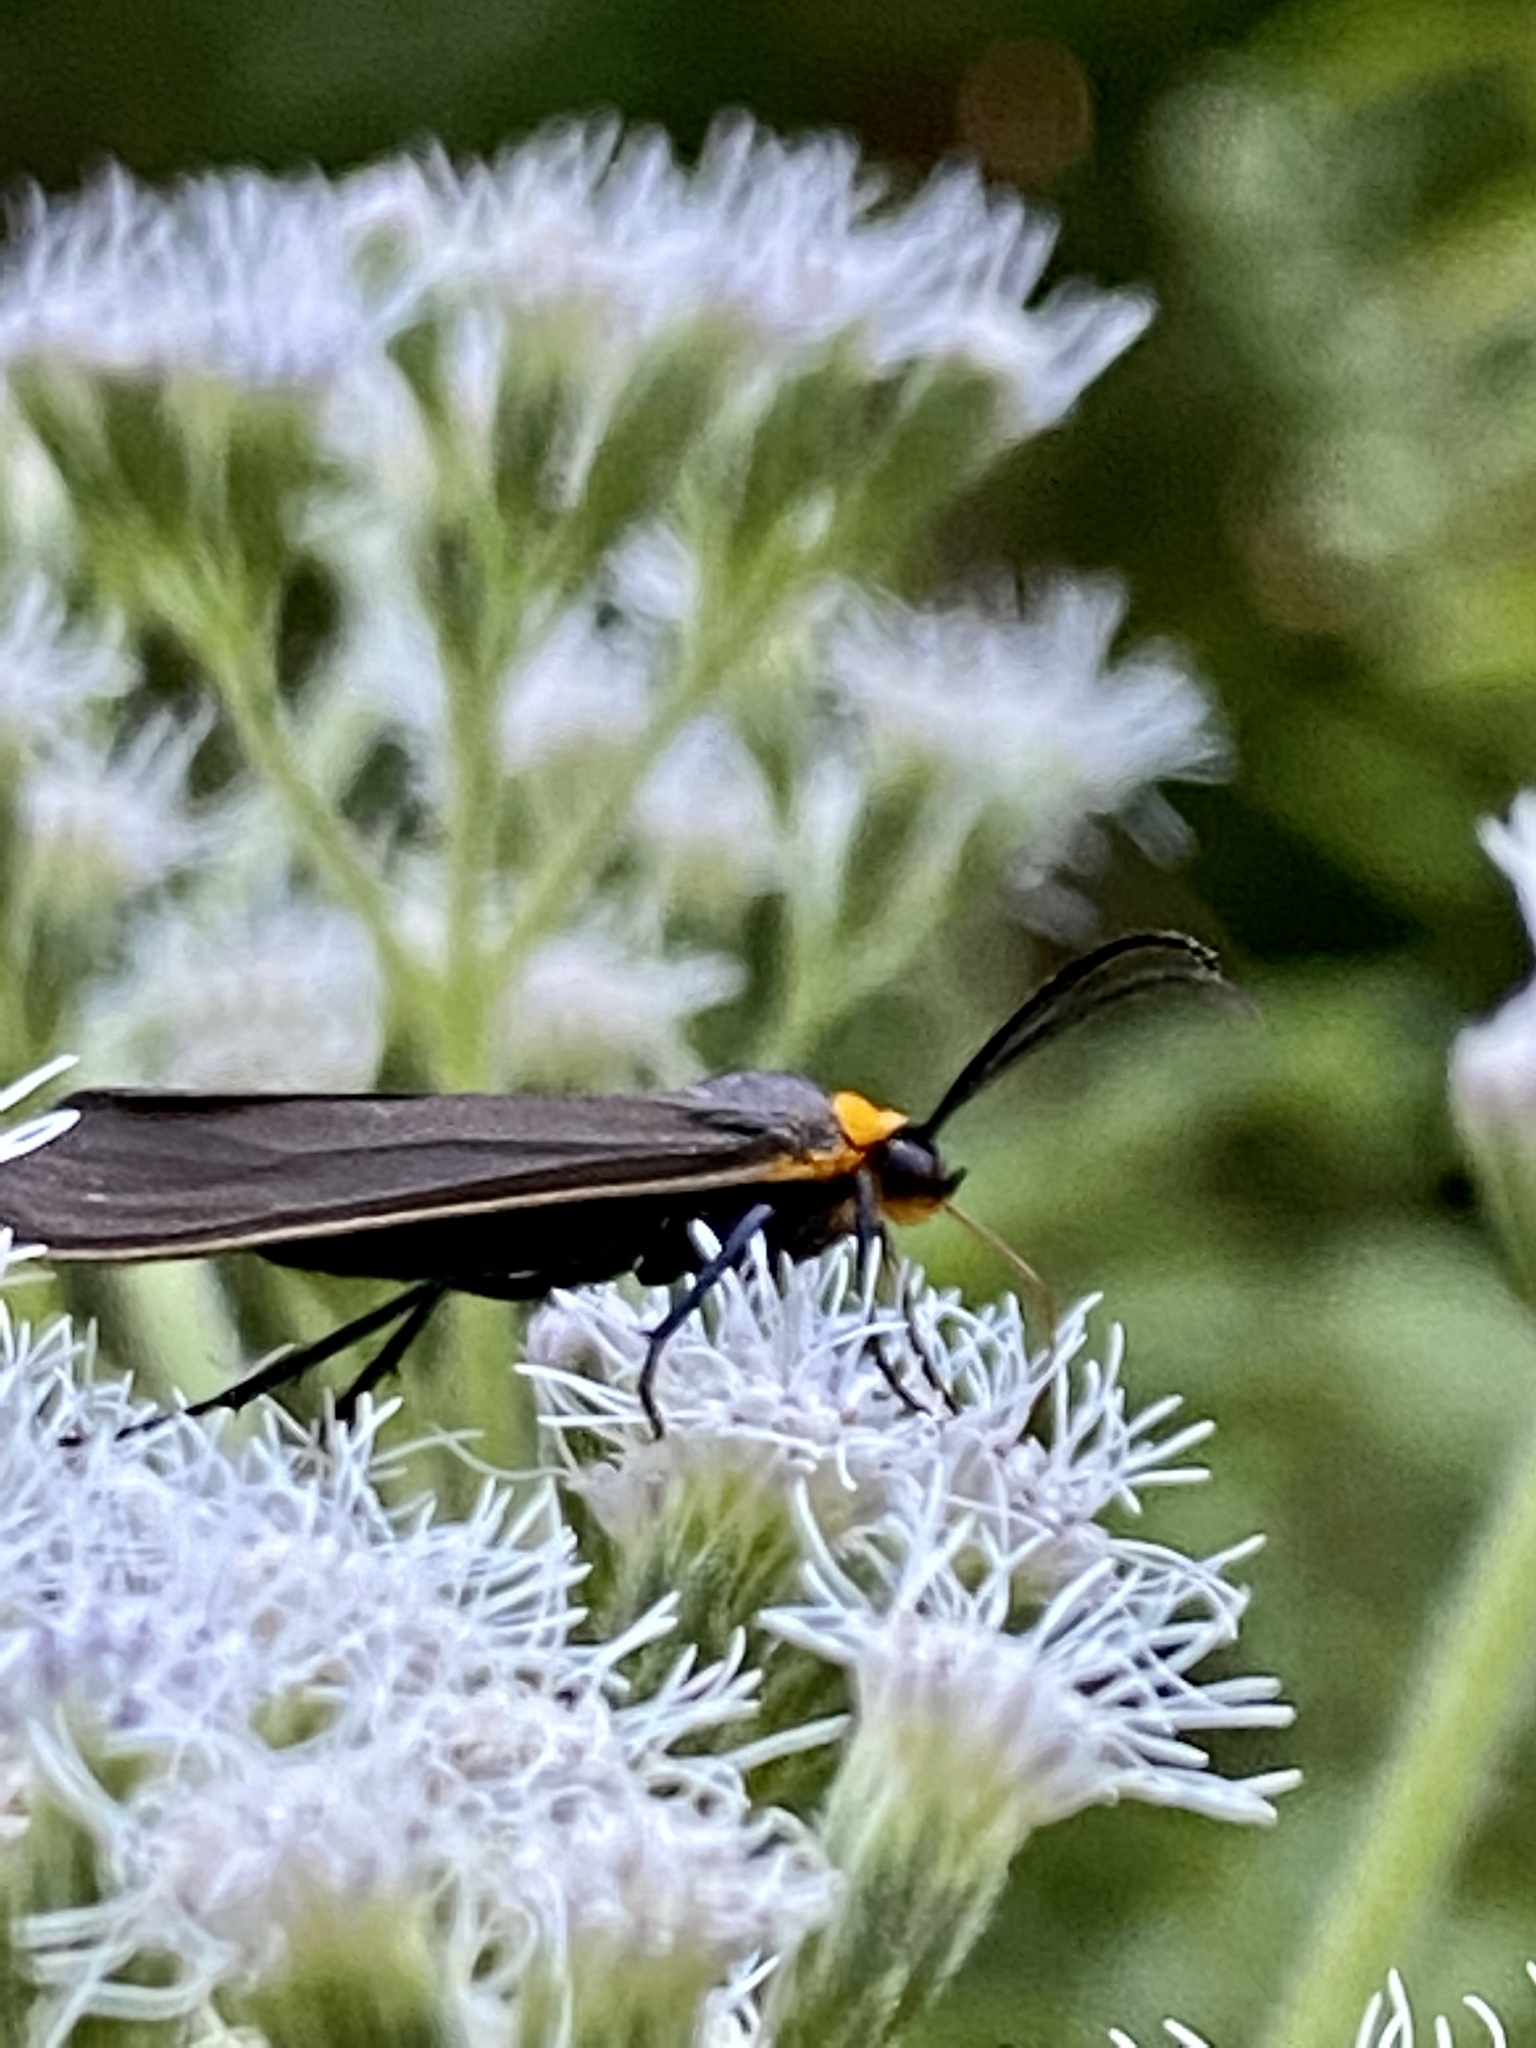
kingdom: Animalia
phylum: Arthropoda
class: Insecta
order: Lepidoptera
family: Erebidae
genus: Cisseps
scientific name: Cisseps fulvicollis
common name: Yellow-collared scape moth
